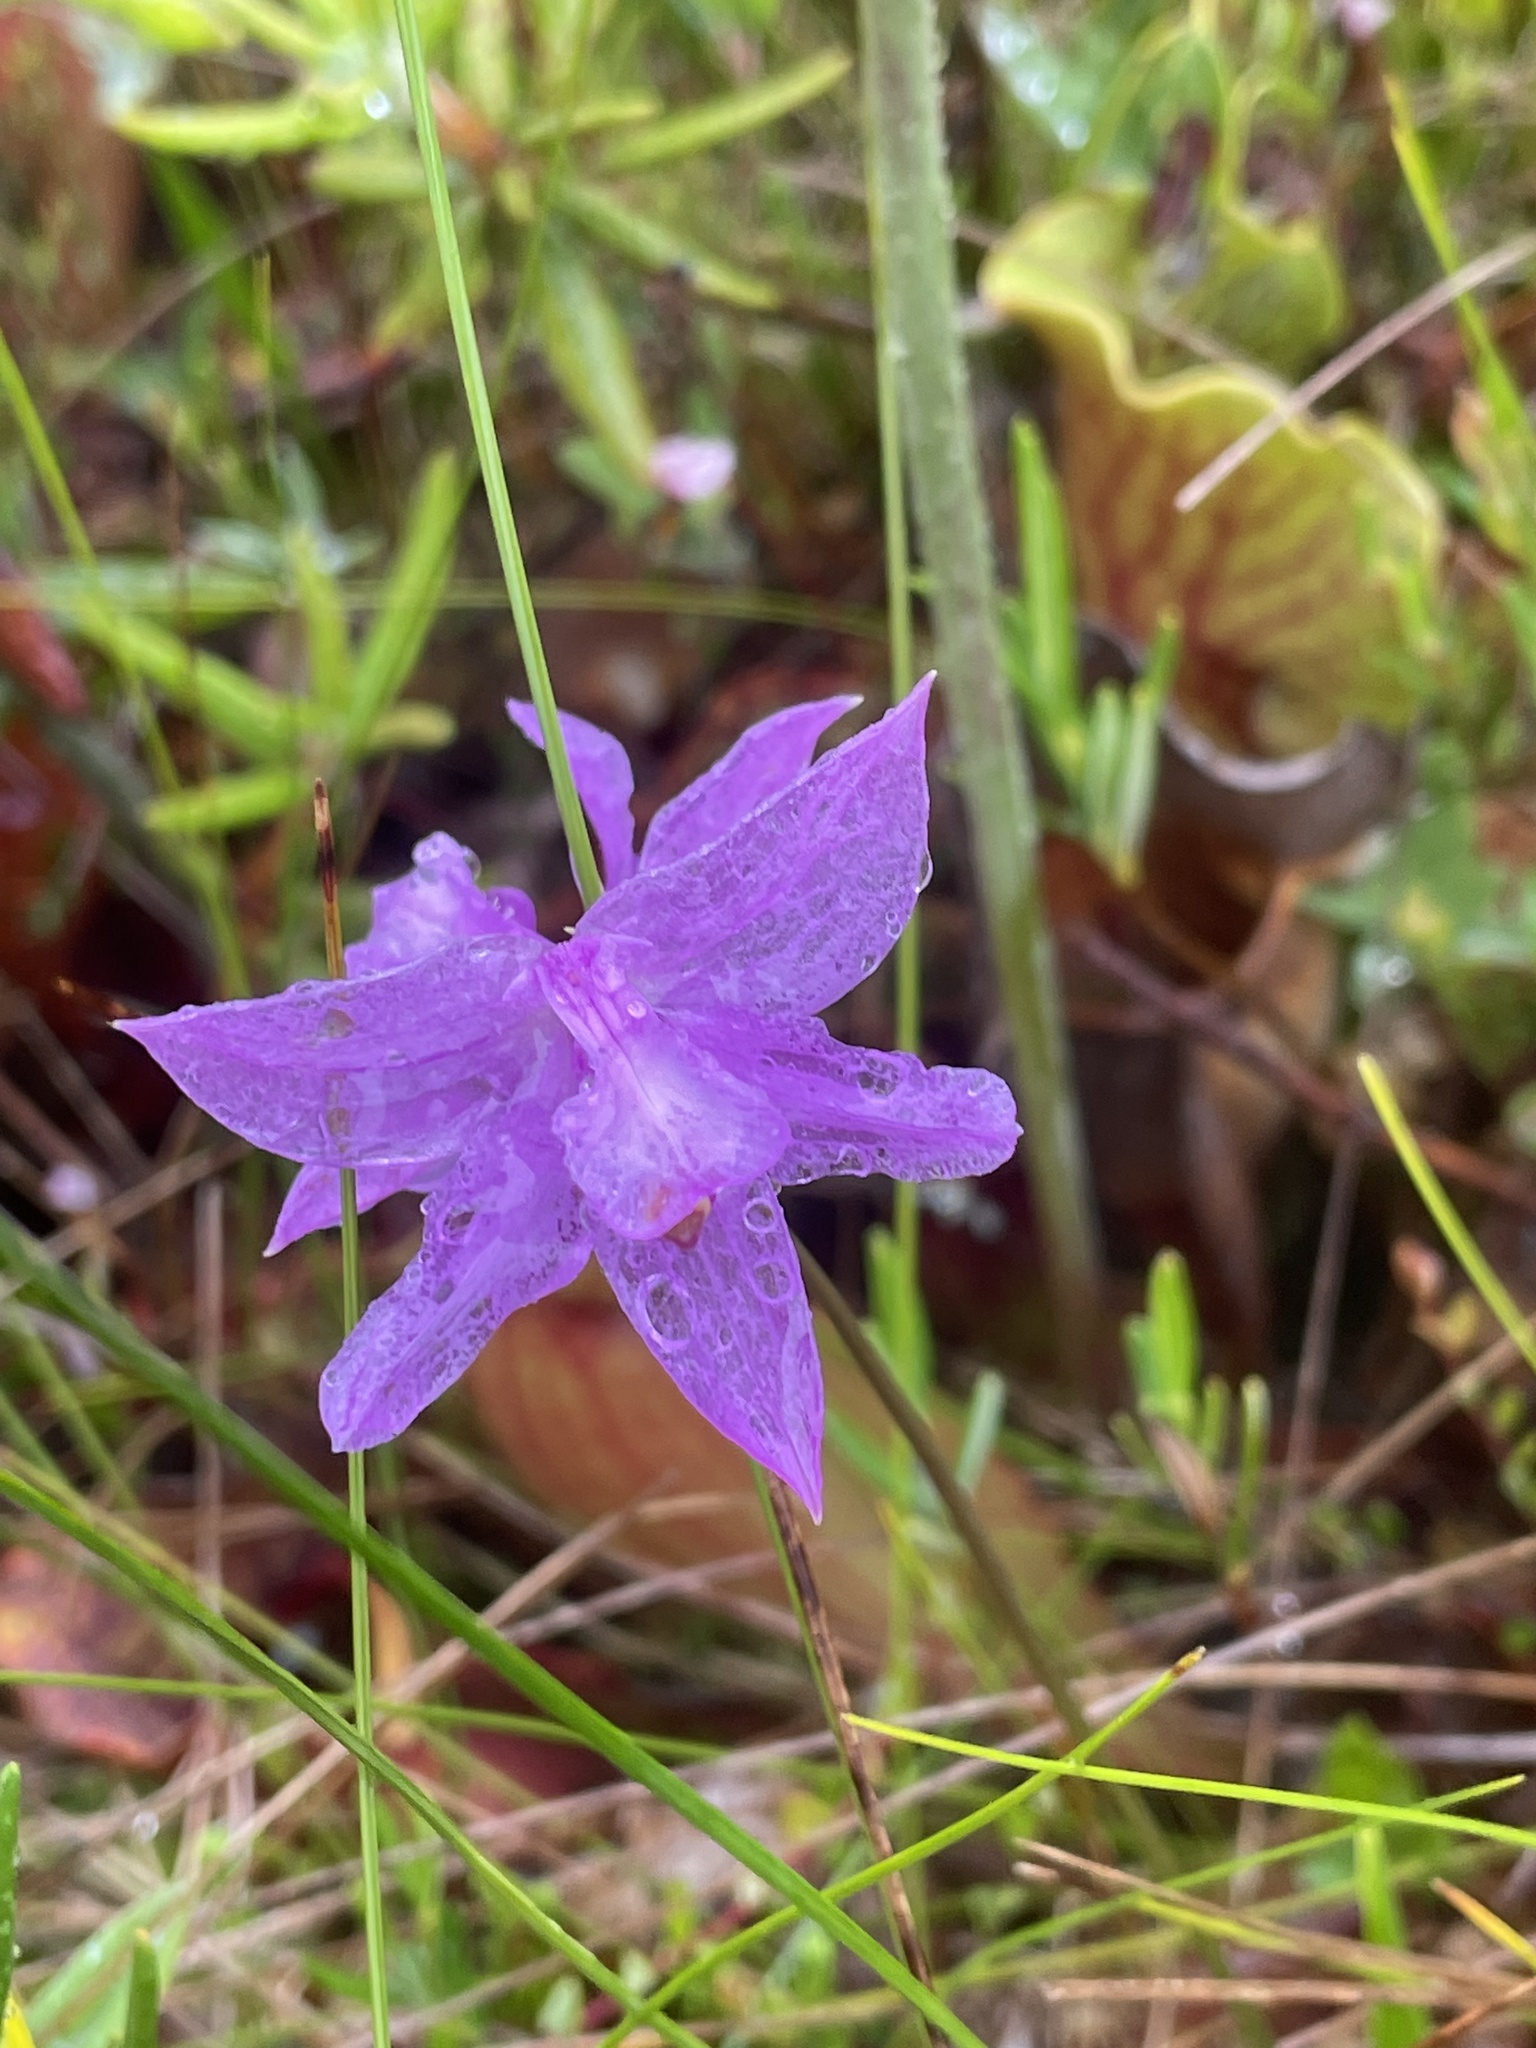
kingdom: Plantae
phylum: Tracheophyta
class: Liliopsida
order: Asparagales
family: Orchidaceae
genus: Calopogon
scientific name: Calopogon tuberosus
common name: Grass-pink
